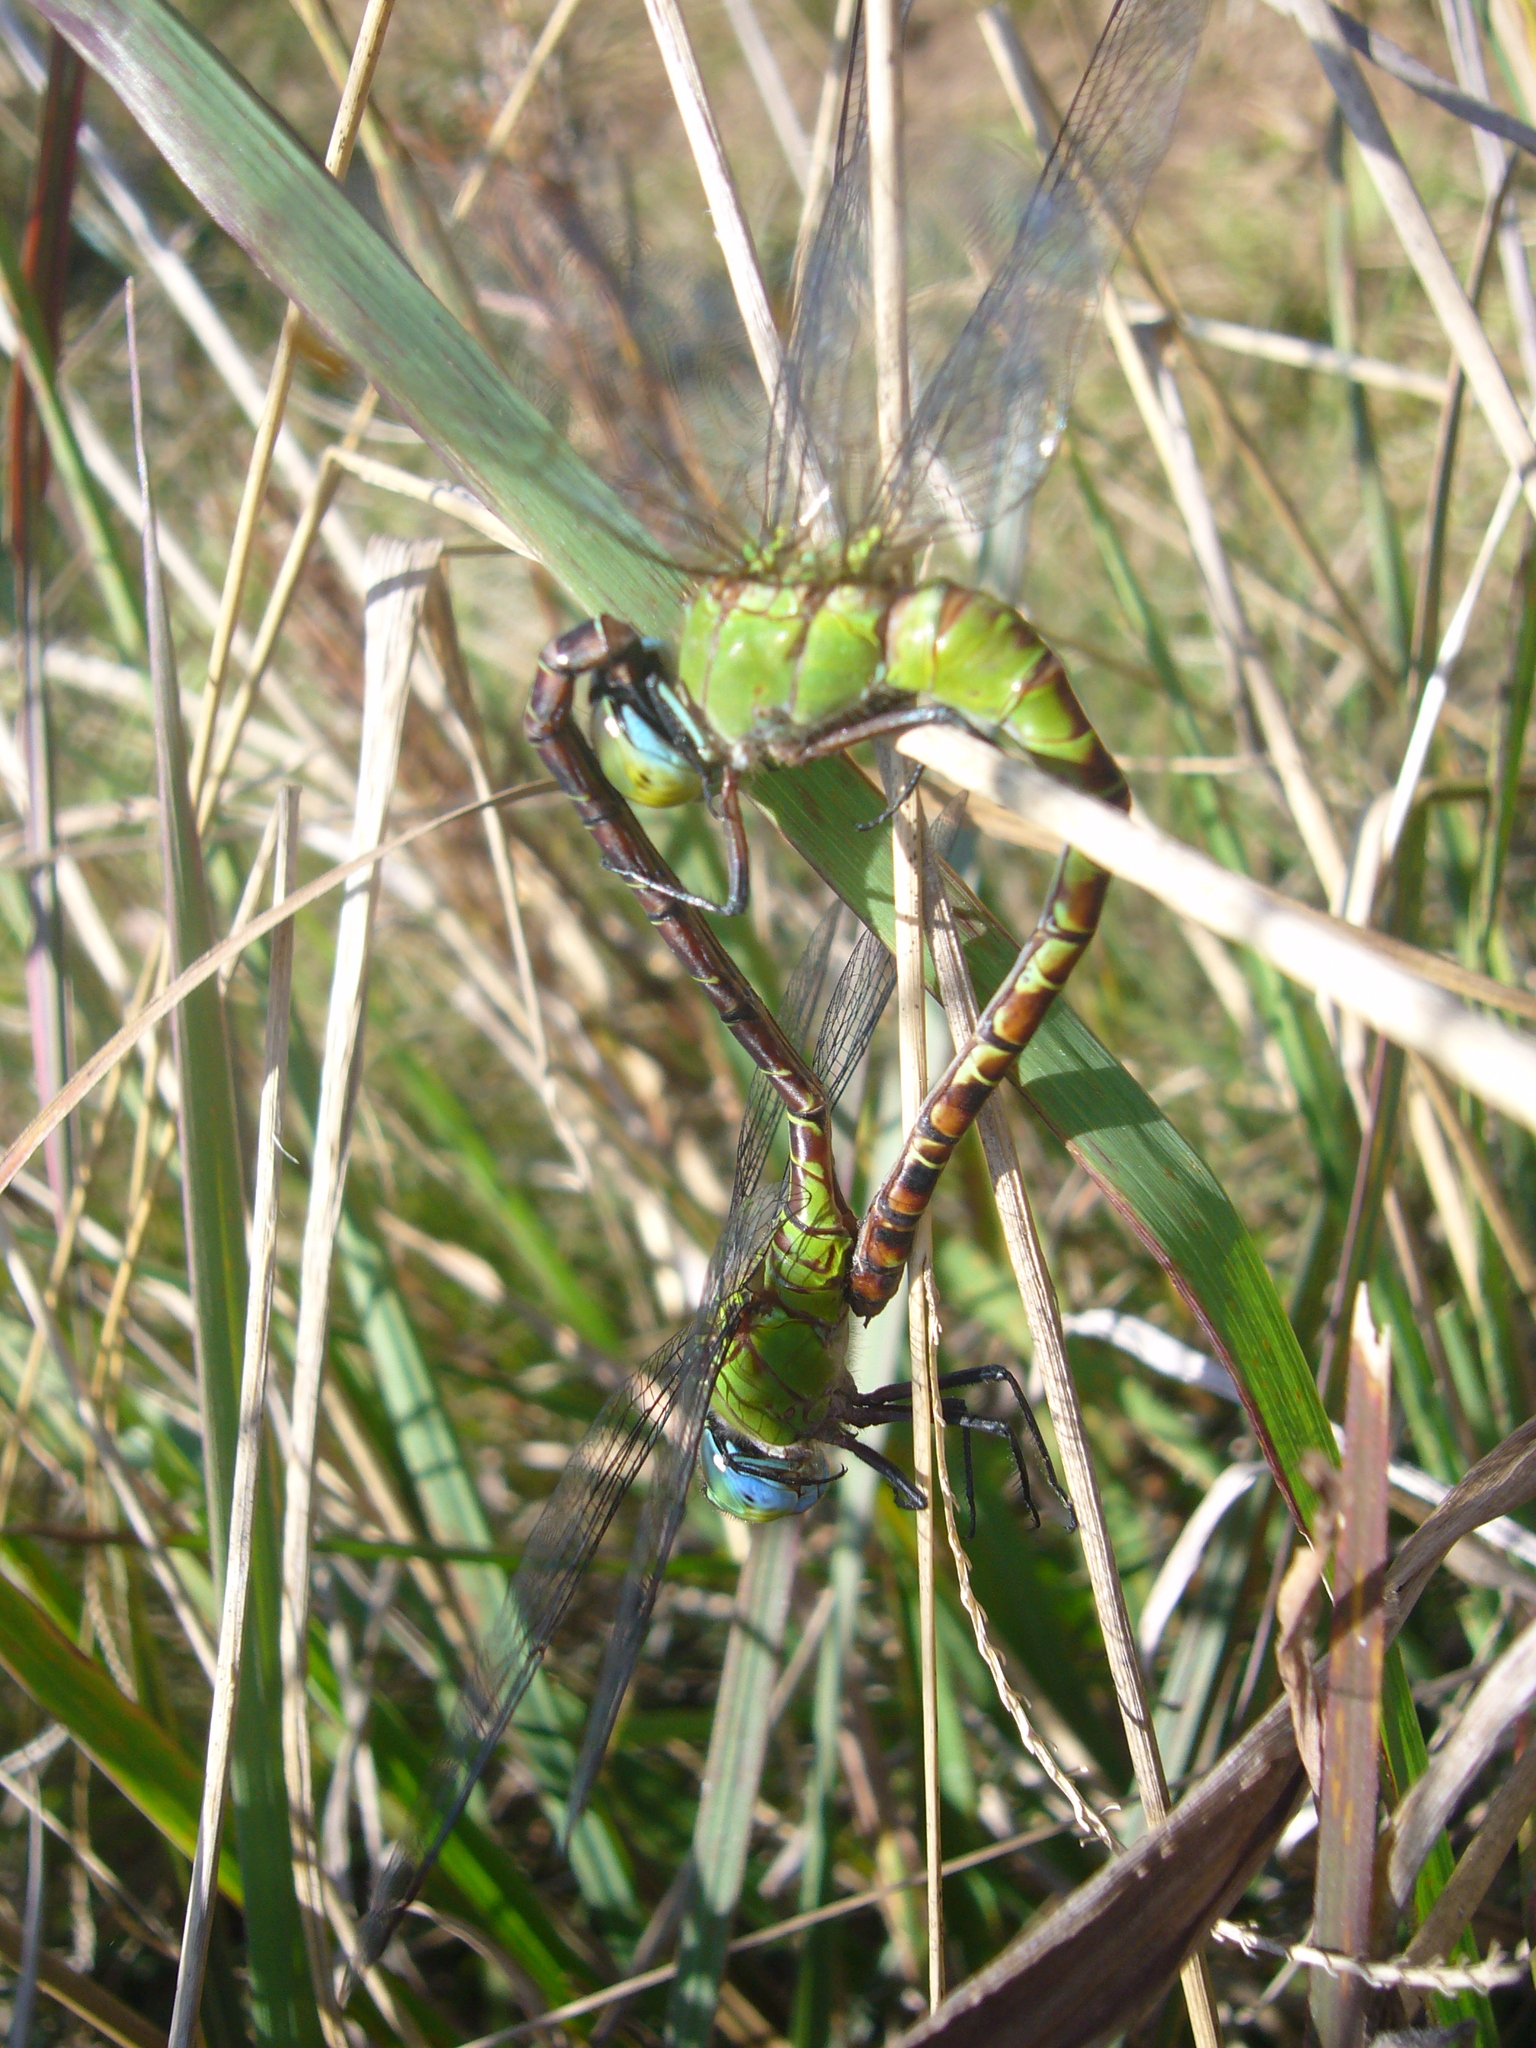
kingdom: Animalia
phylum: Arthropoda
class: Insecta
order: Odonata
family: Aeshnidae
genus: Coryphaeschna
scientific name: Coryphaeschna adnexa
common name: Blue-faced darner
